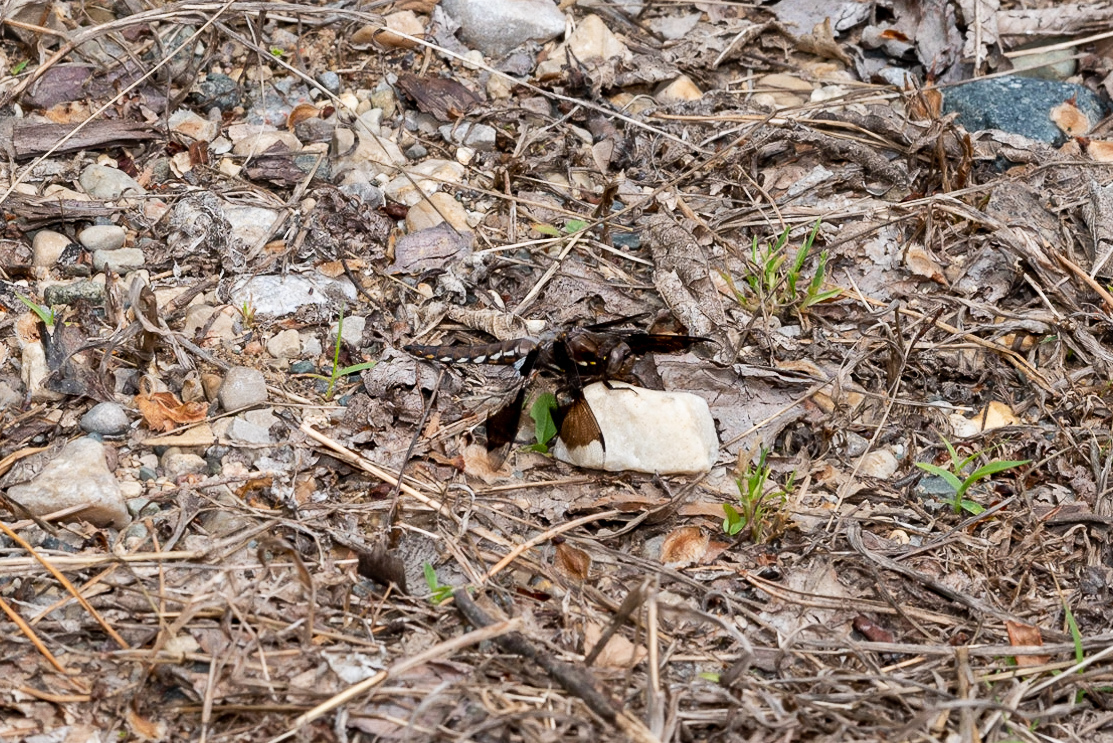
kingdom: Animalia
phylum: Arthropoda
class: Insecta
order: Odonata
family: Libellulidae
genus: Plathemis
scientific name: Plathemis lydia
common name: Common whitetail
